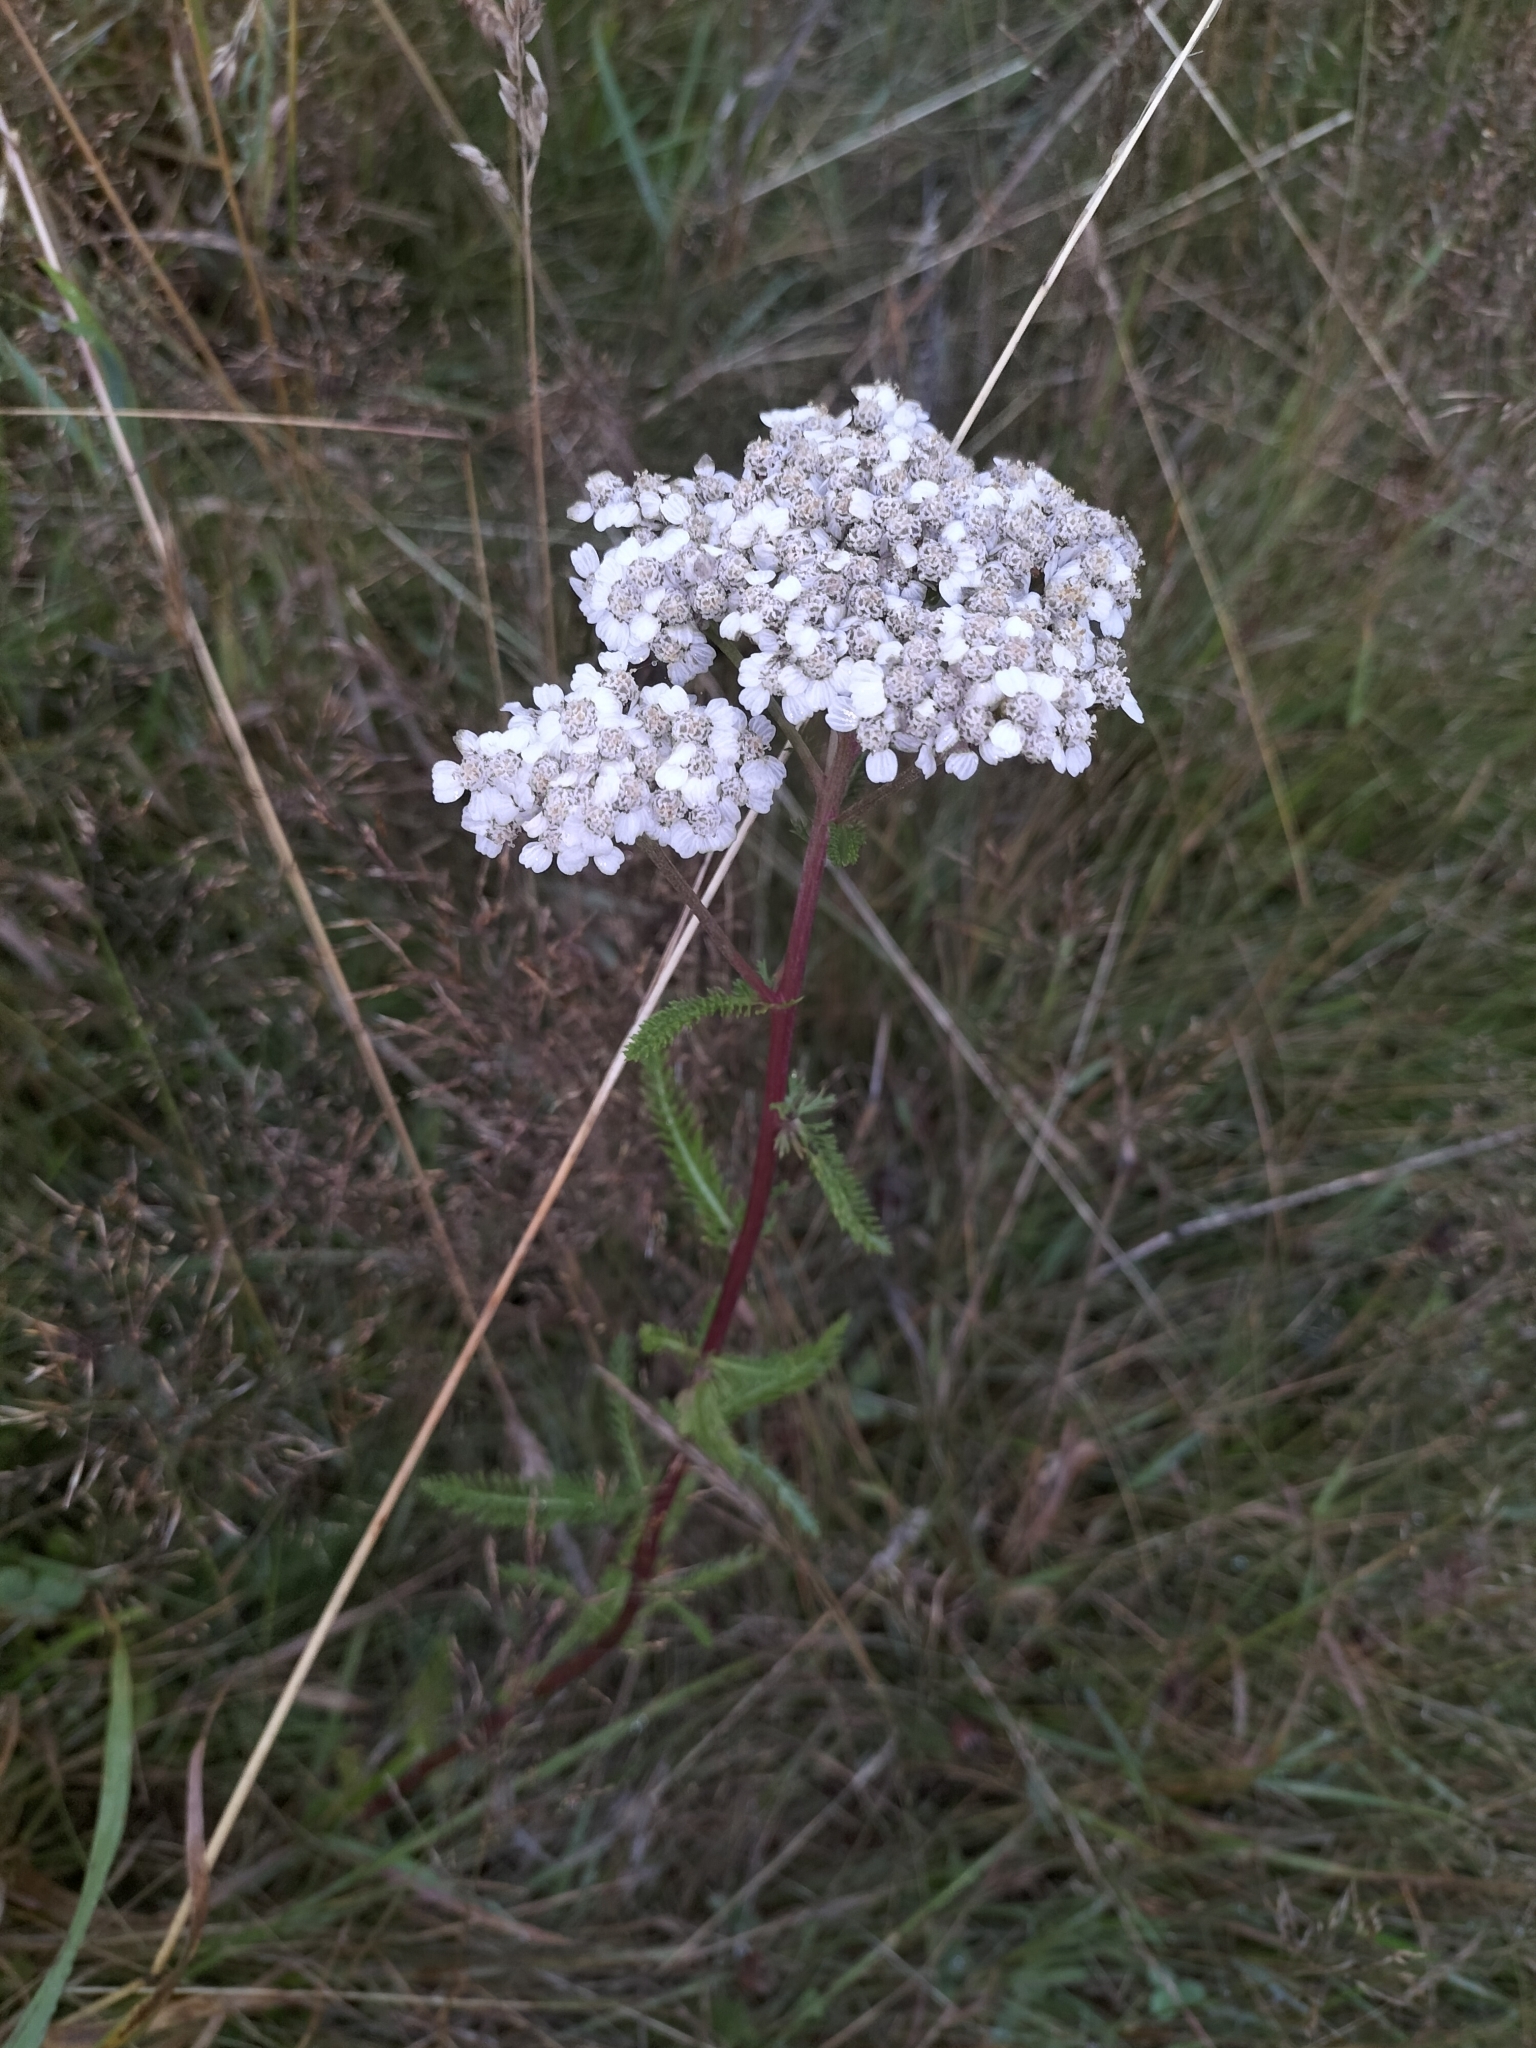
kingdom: Plantae
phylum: Tracheophyta
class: Magnoliopsida
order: Asterales
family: Asteraceae
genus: Achillea
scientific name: Achillea millefolium
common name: Yarrow
